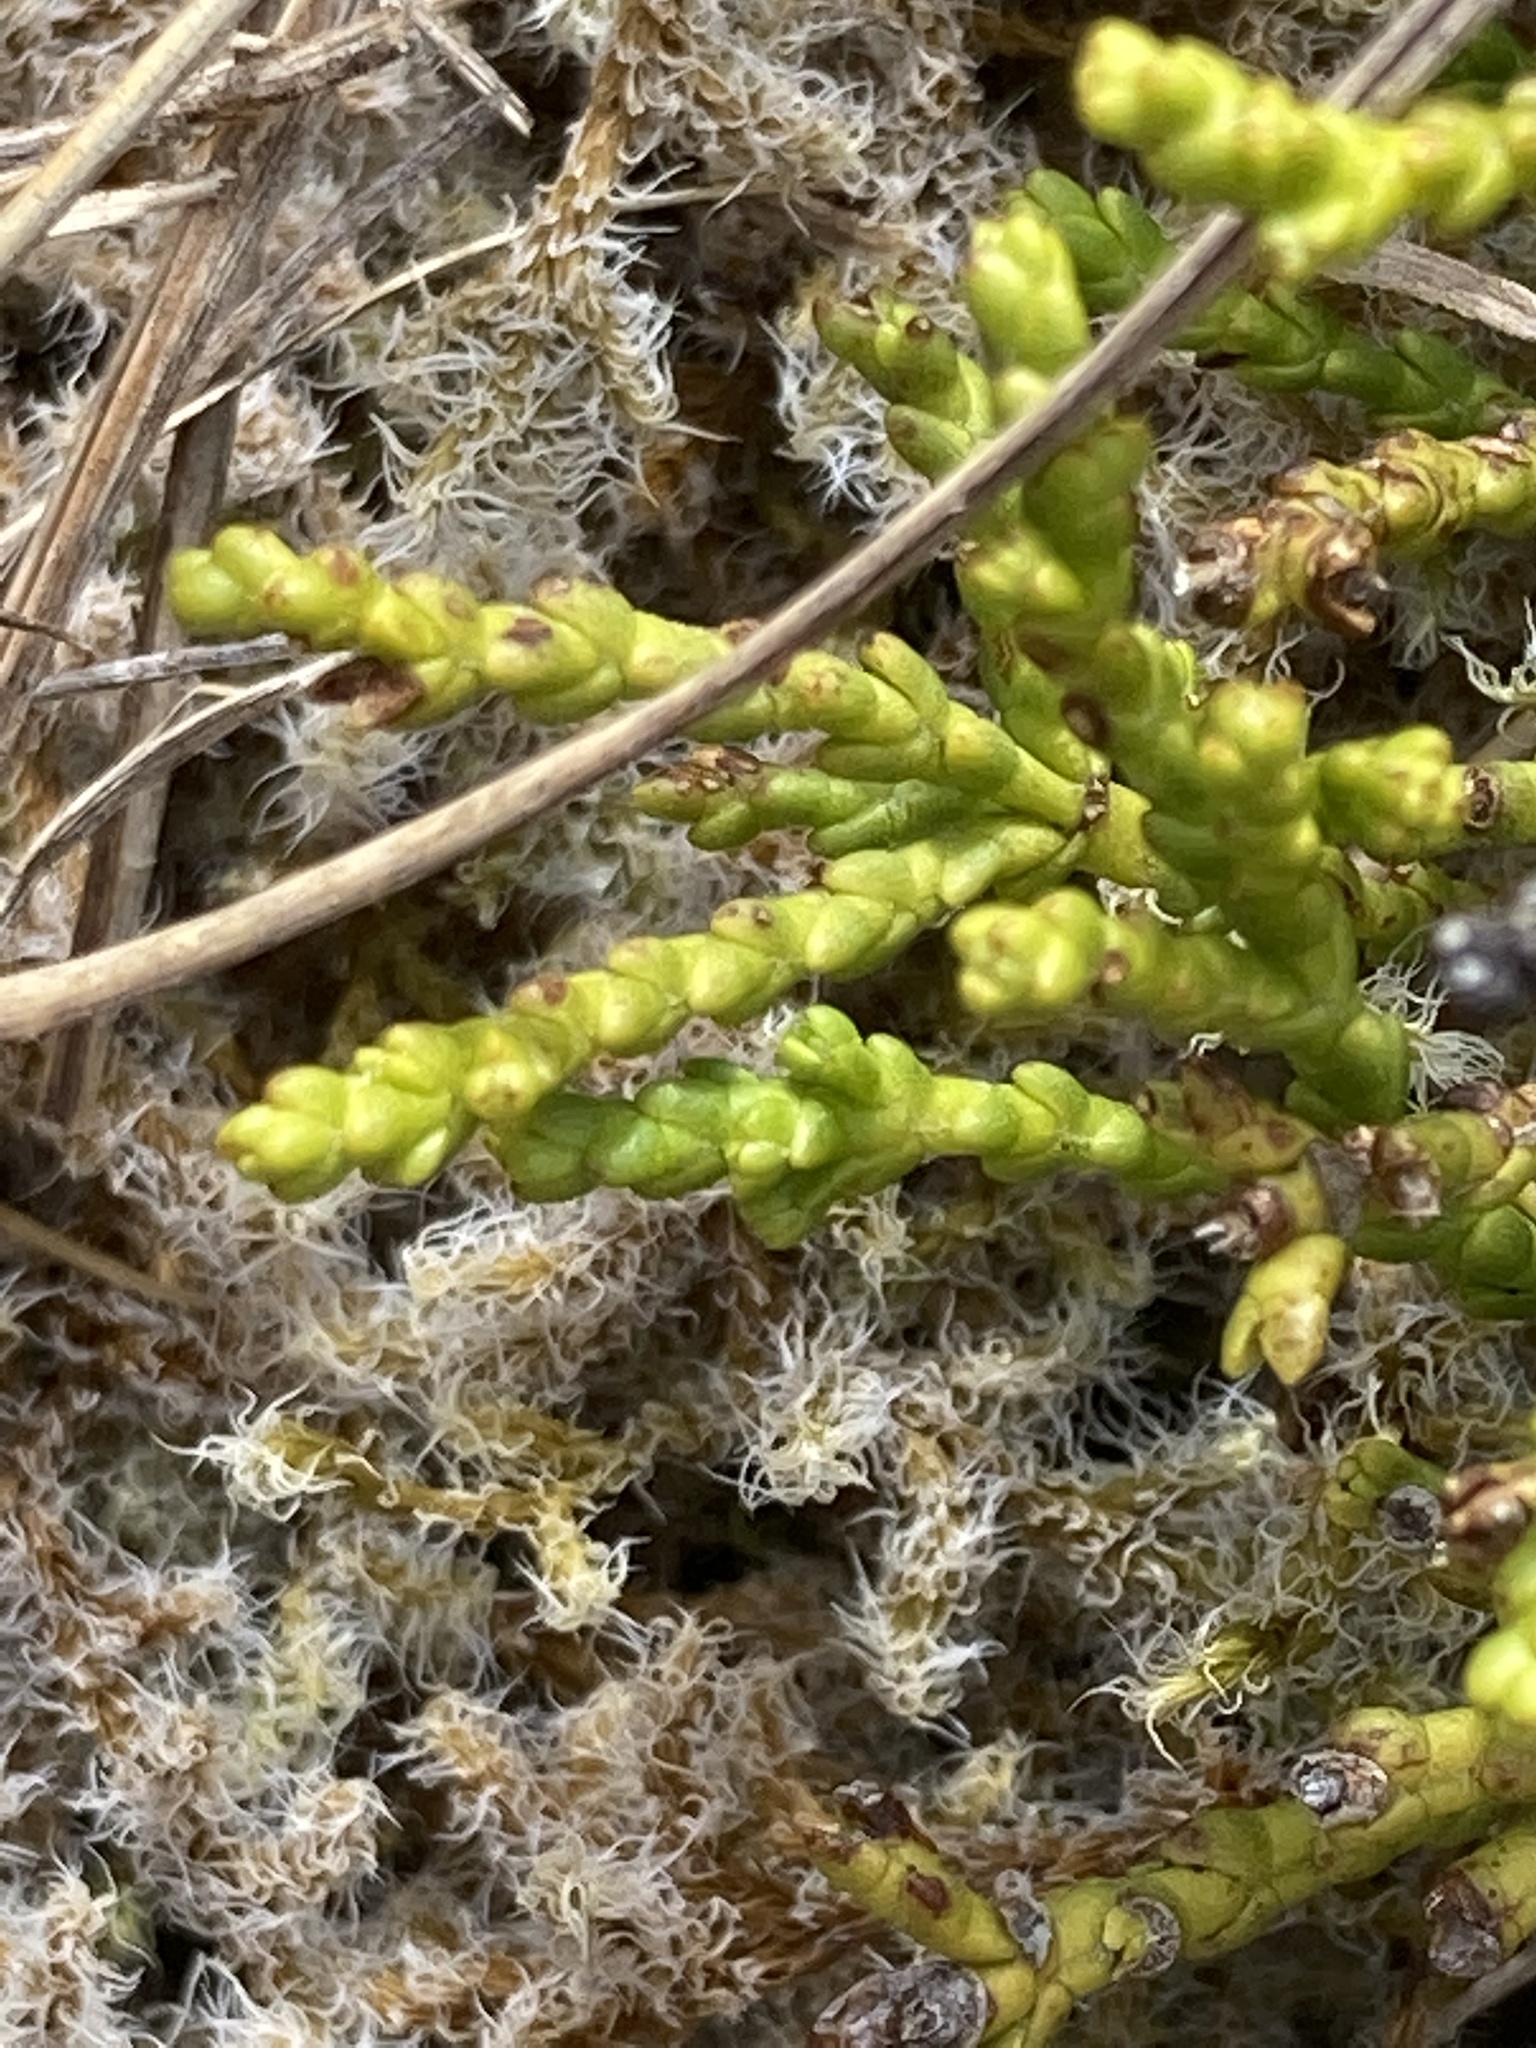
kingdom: Plantae
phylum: Tracheophyta
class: Magnoliopsida
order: Lamiales
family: Plantaginaceae
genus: Veronica
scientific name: Veronica hectorii
